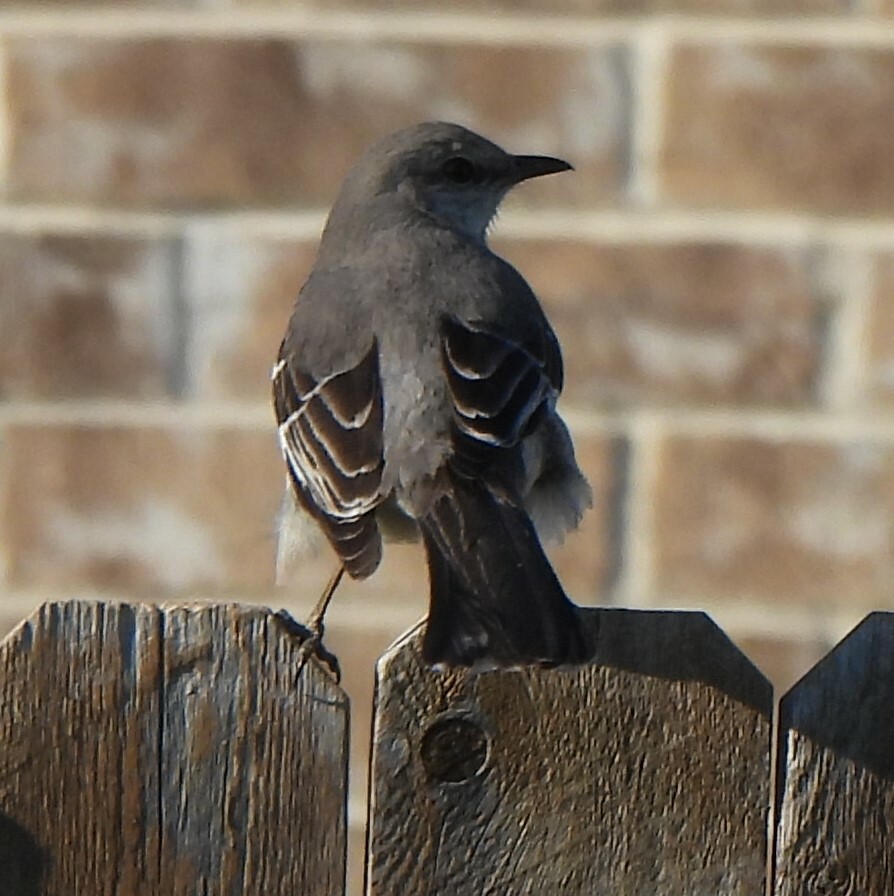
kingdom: Animalia
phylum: Chordata
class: Aves
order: Passeriformes
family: Mimidae
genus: Mimus
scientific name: Mimus polyglottos
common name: Northern mockingbird
